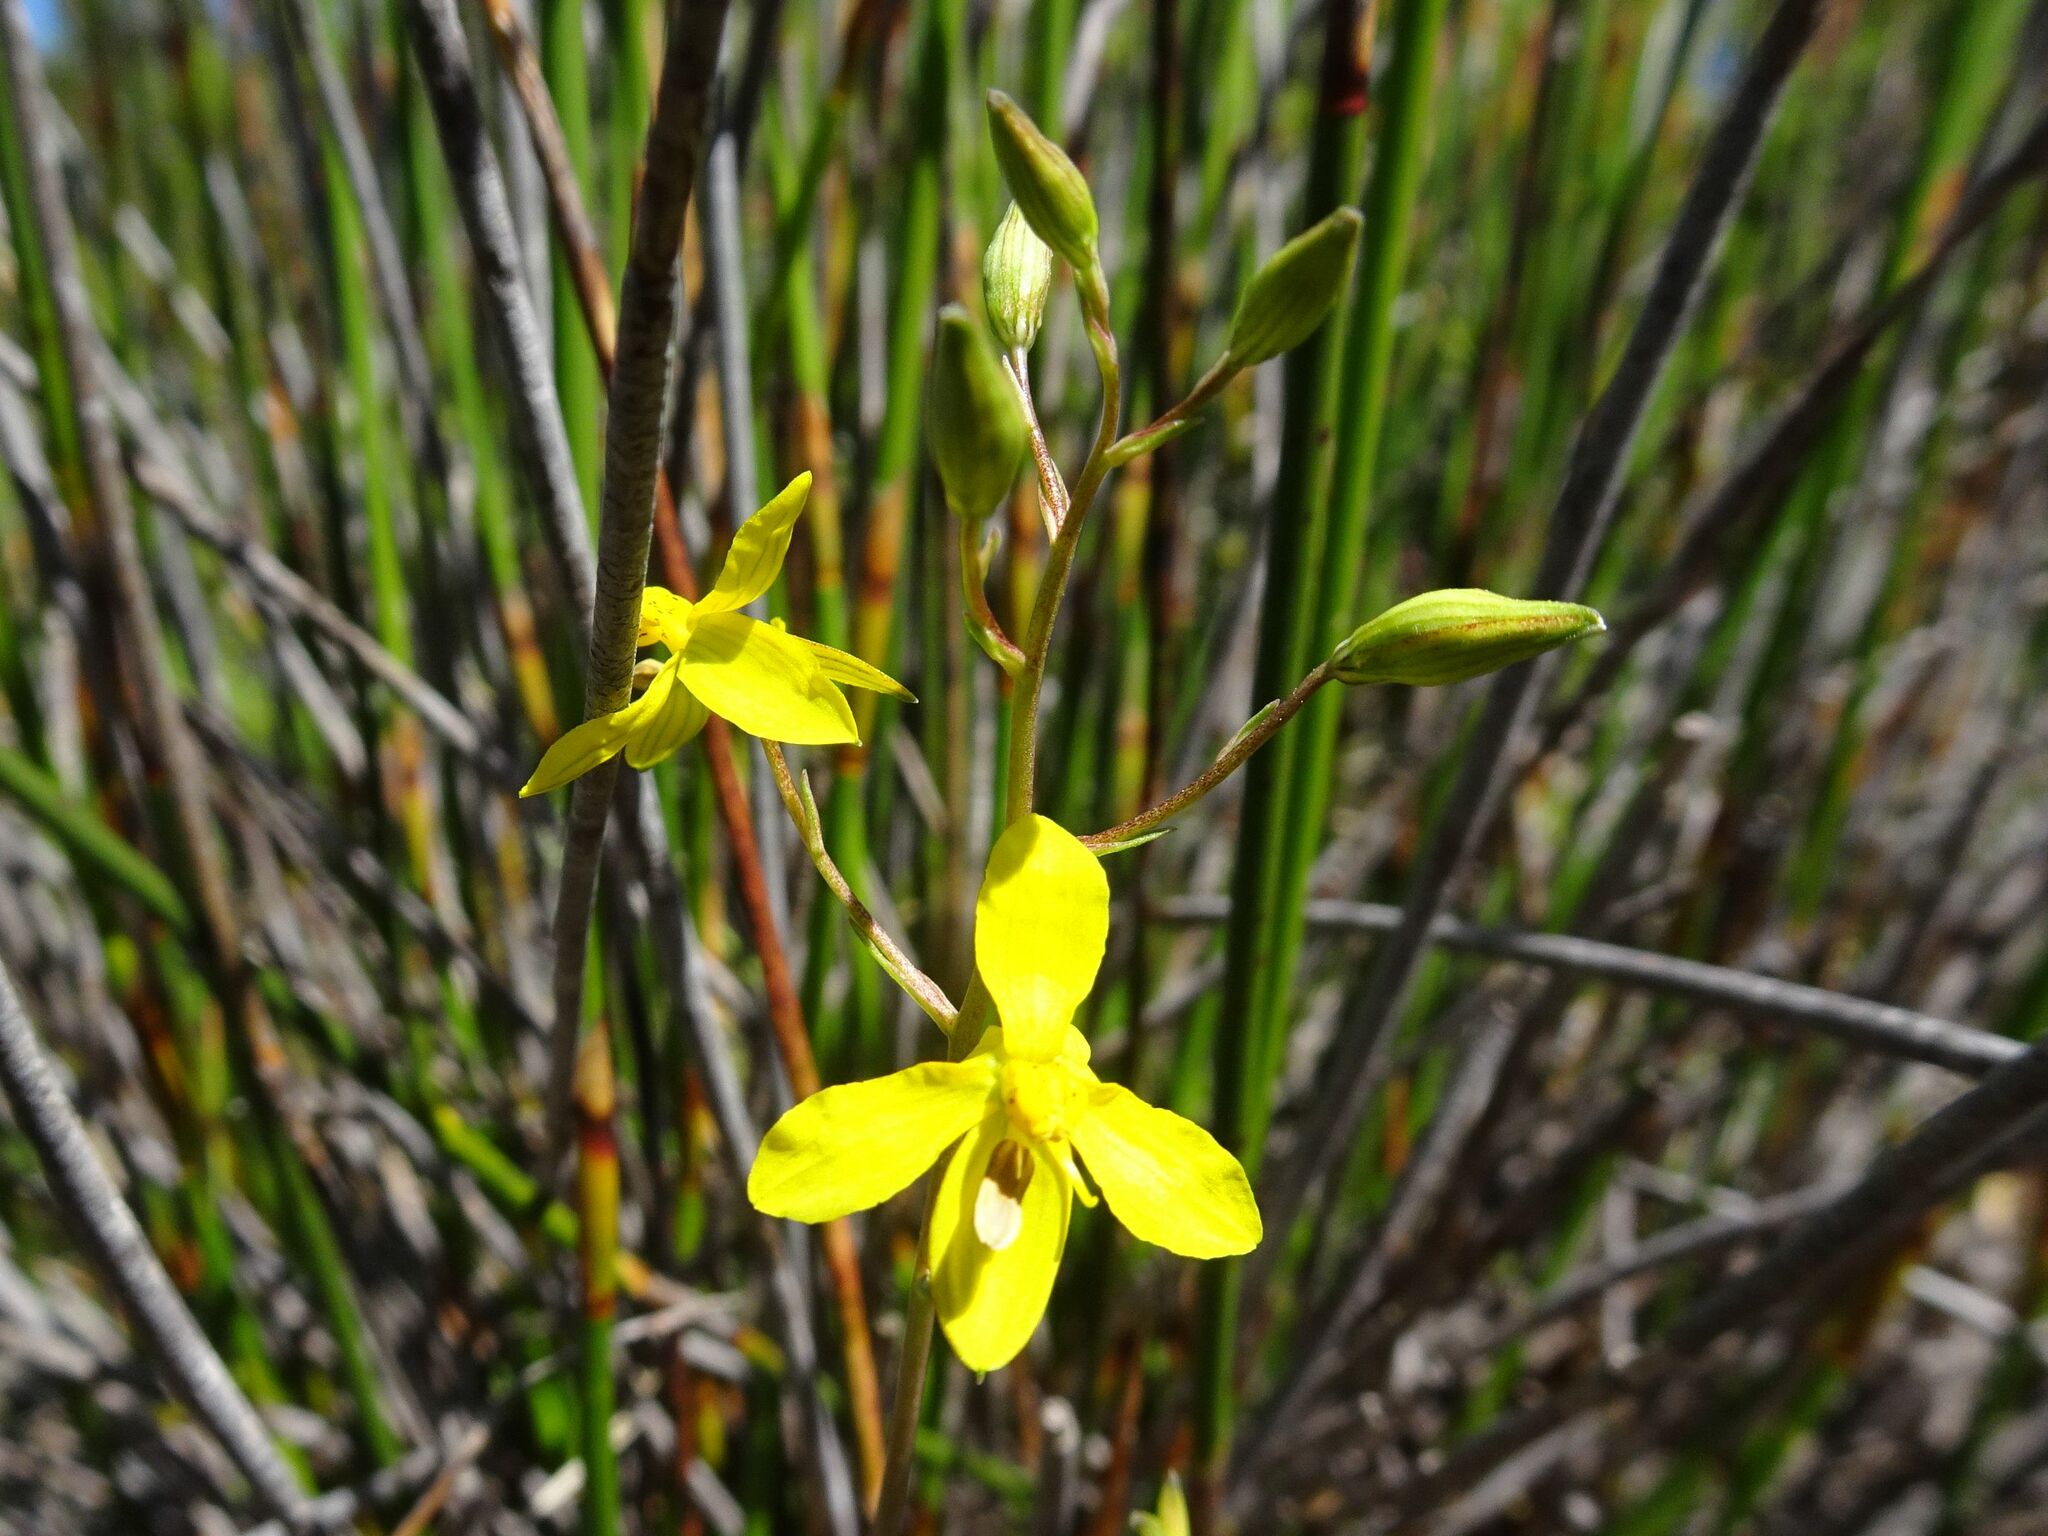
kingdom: Plantae
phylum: Tracheophyta
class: Liliopsida
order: Asparagales
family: Tecophilaeaceae
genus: Cyanella
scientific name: Cyanella lutea
